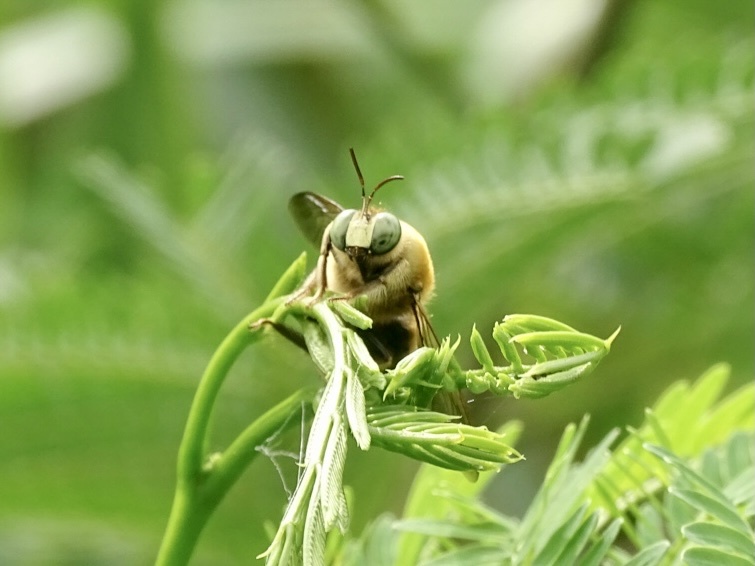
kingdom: Animalia
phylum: Arthropoda
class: Insecta
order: Hymenoptera
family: Apidae
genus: Xylocopa
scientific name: Xylocopa dejeanii
